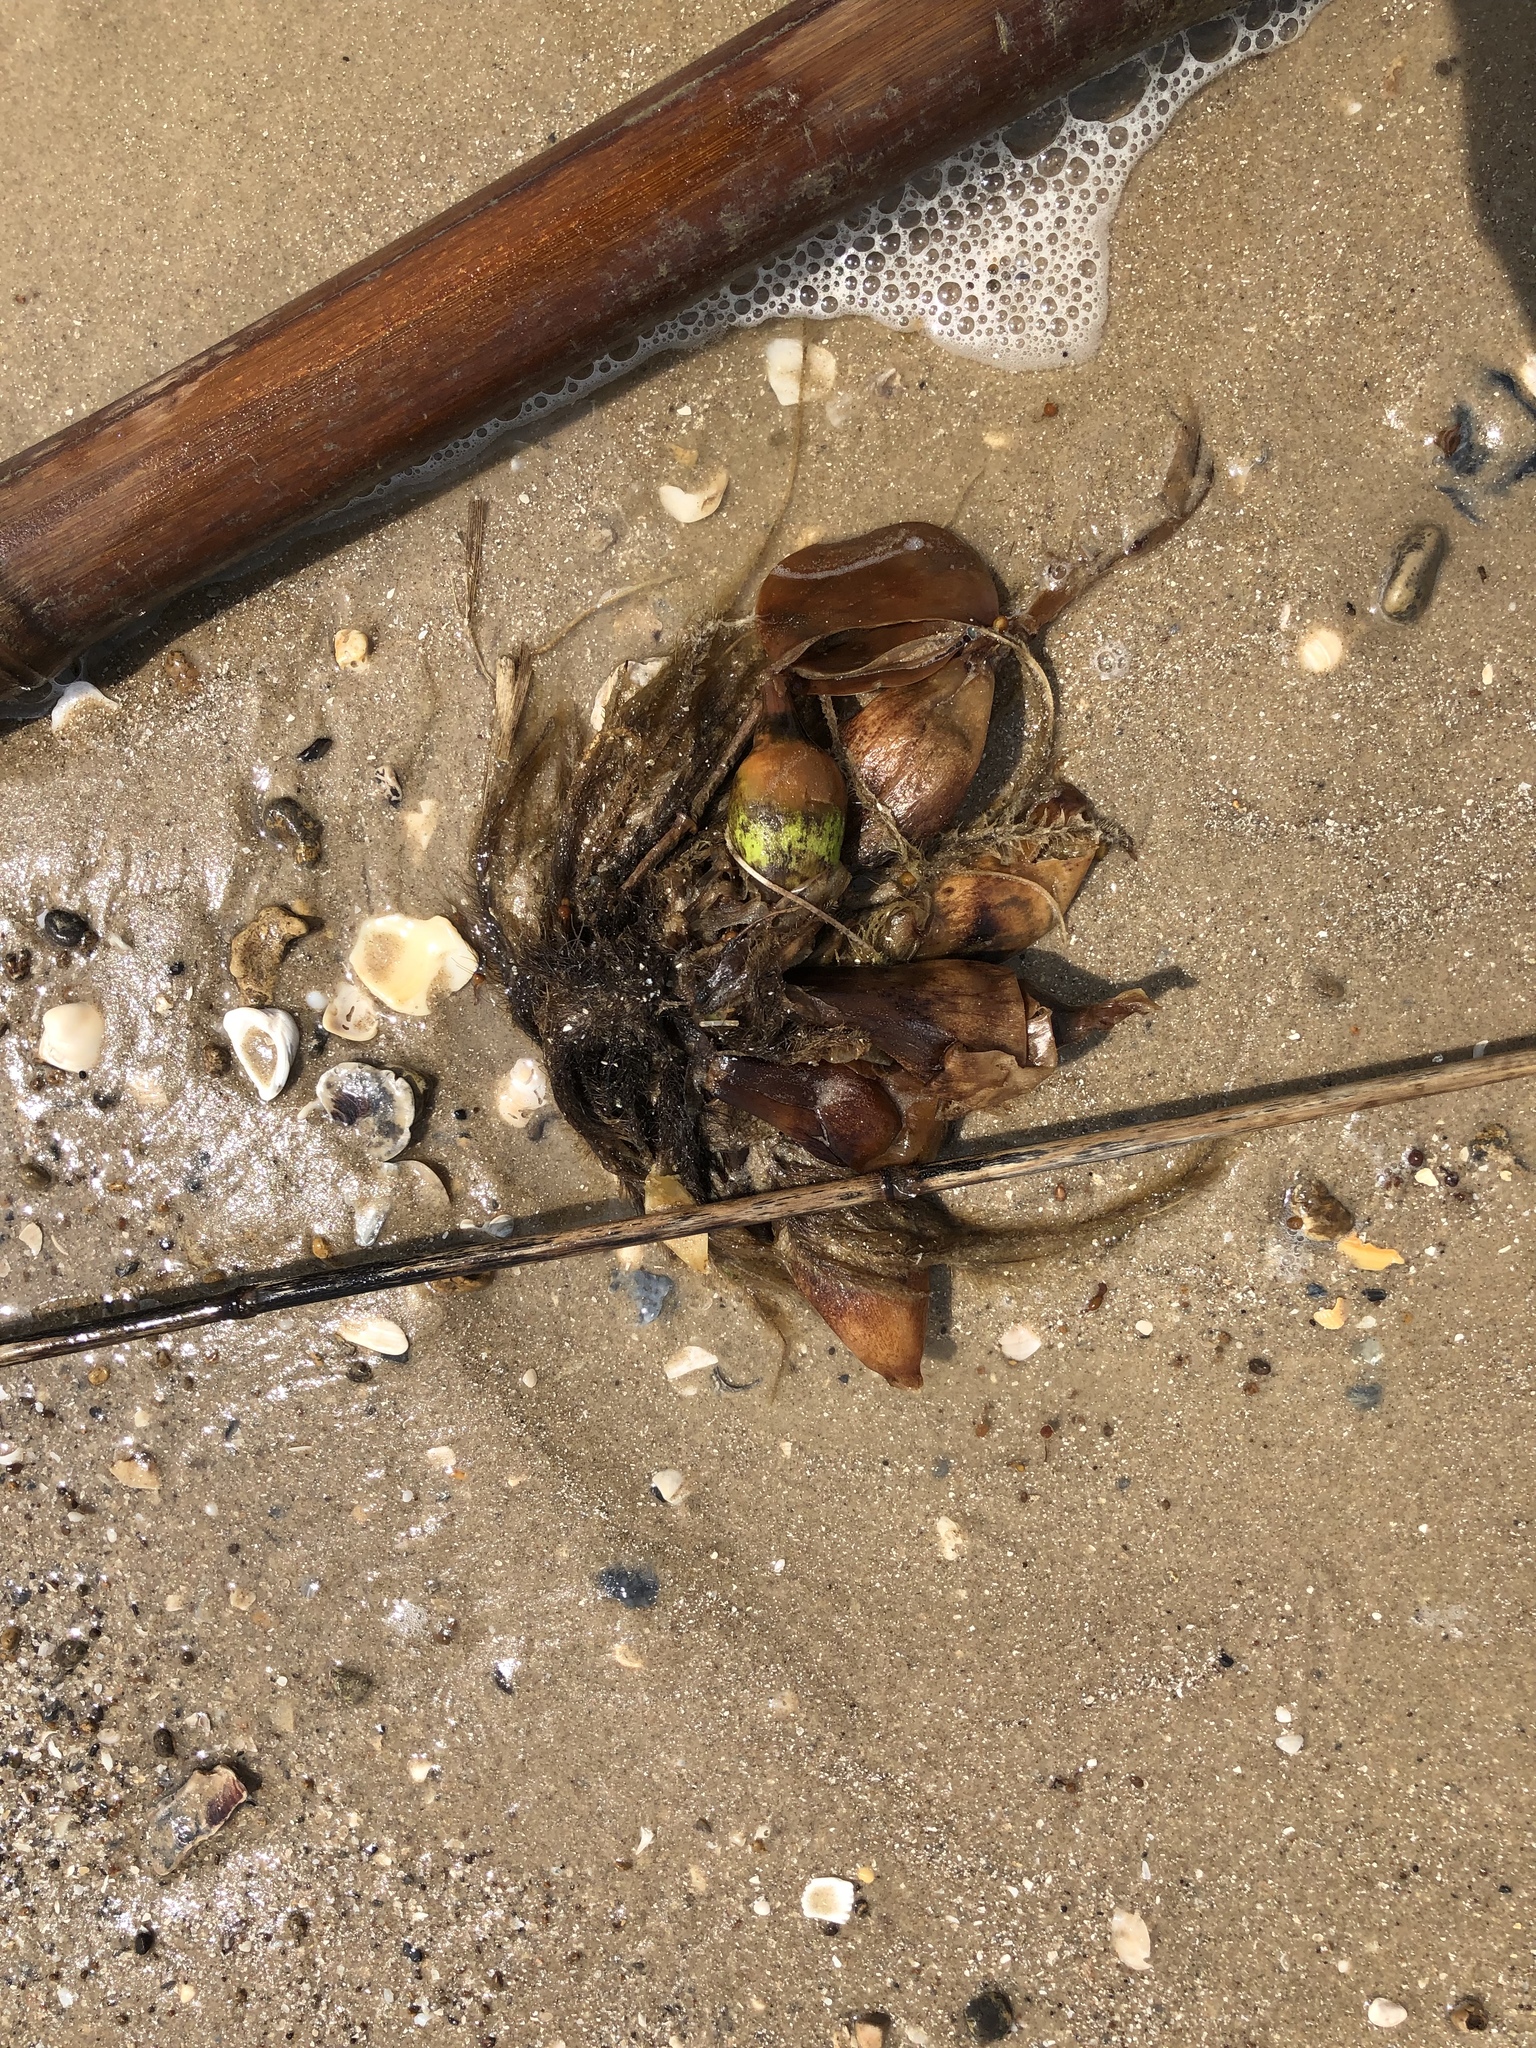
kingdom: Plantae
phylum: Tracheophyta
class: Liliopsida
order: Commelinales
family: Pontederiaceae
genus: Pontederia
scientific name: Pontederia crassipes
